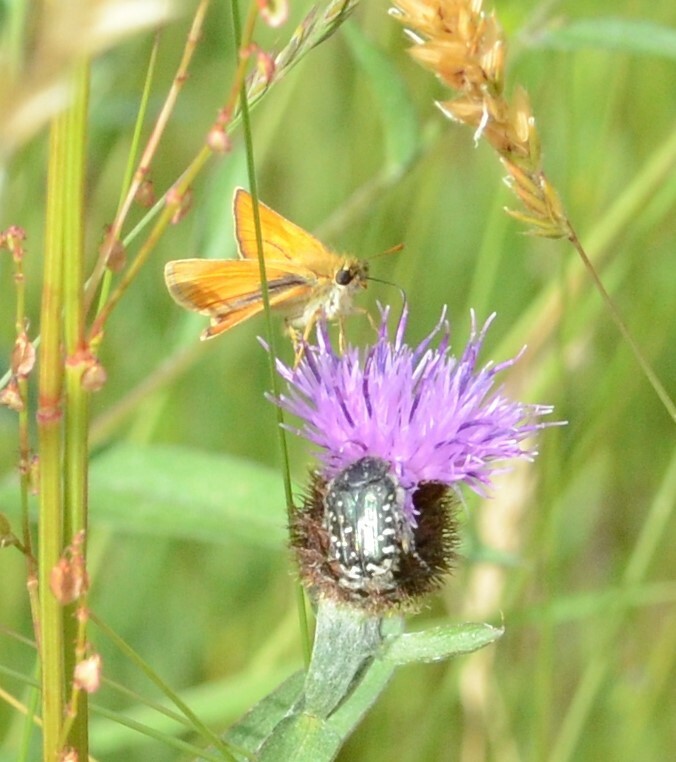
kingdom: Animalia
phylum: Arthropoda
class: Insecta
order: Coleoptera
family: Scarabaeidae
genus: Oxythyrea
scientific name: Oxythyrea funesta
